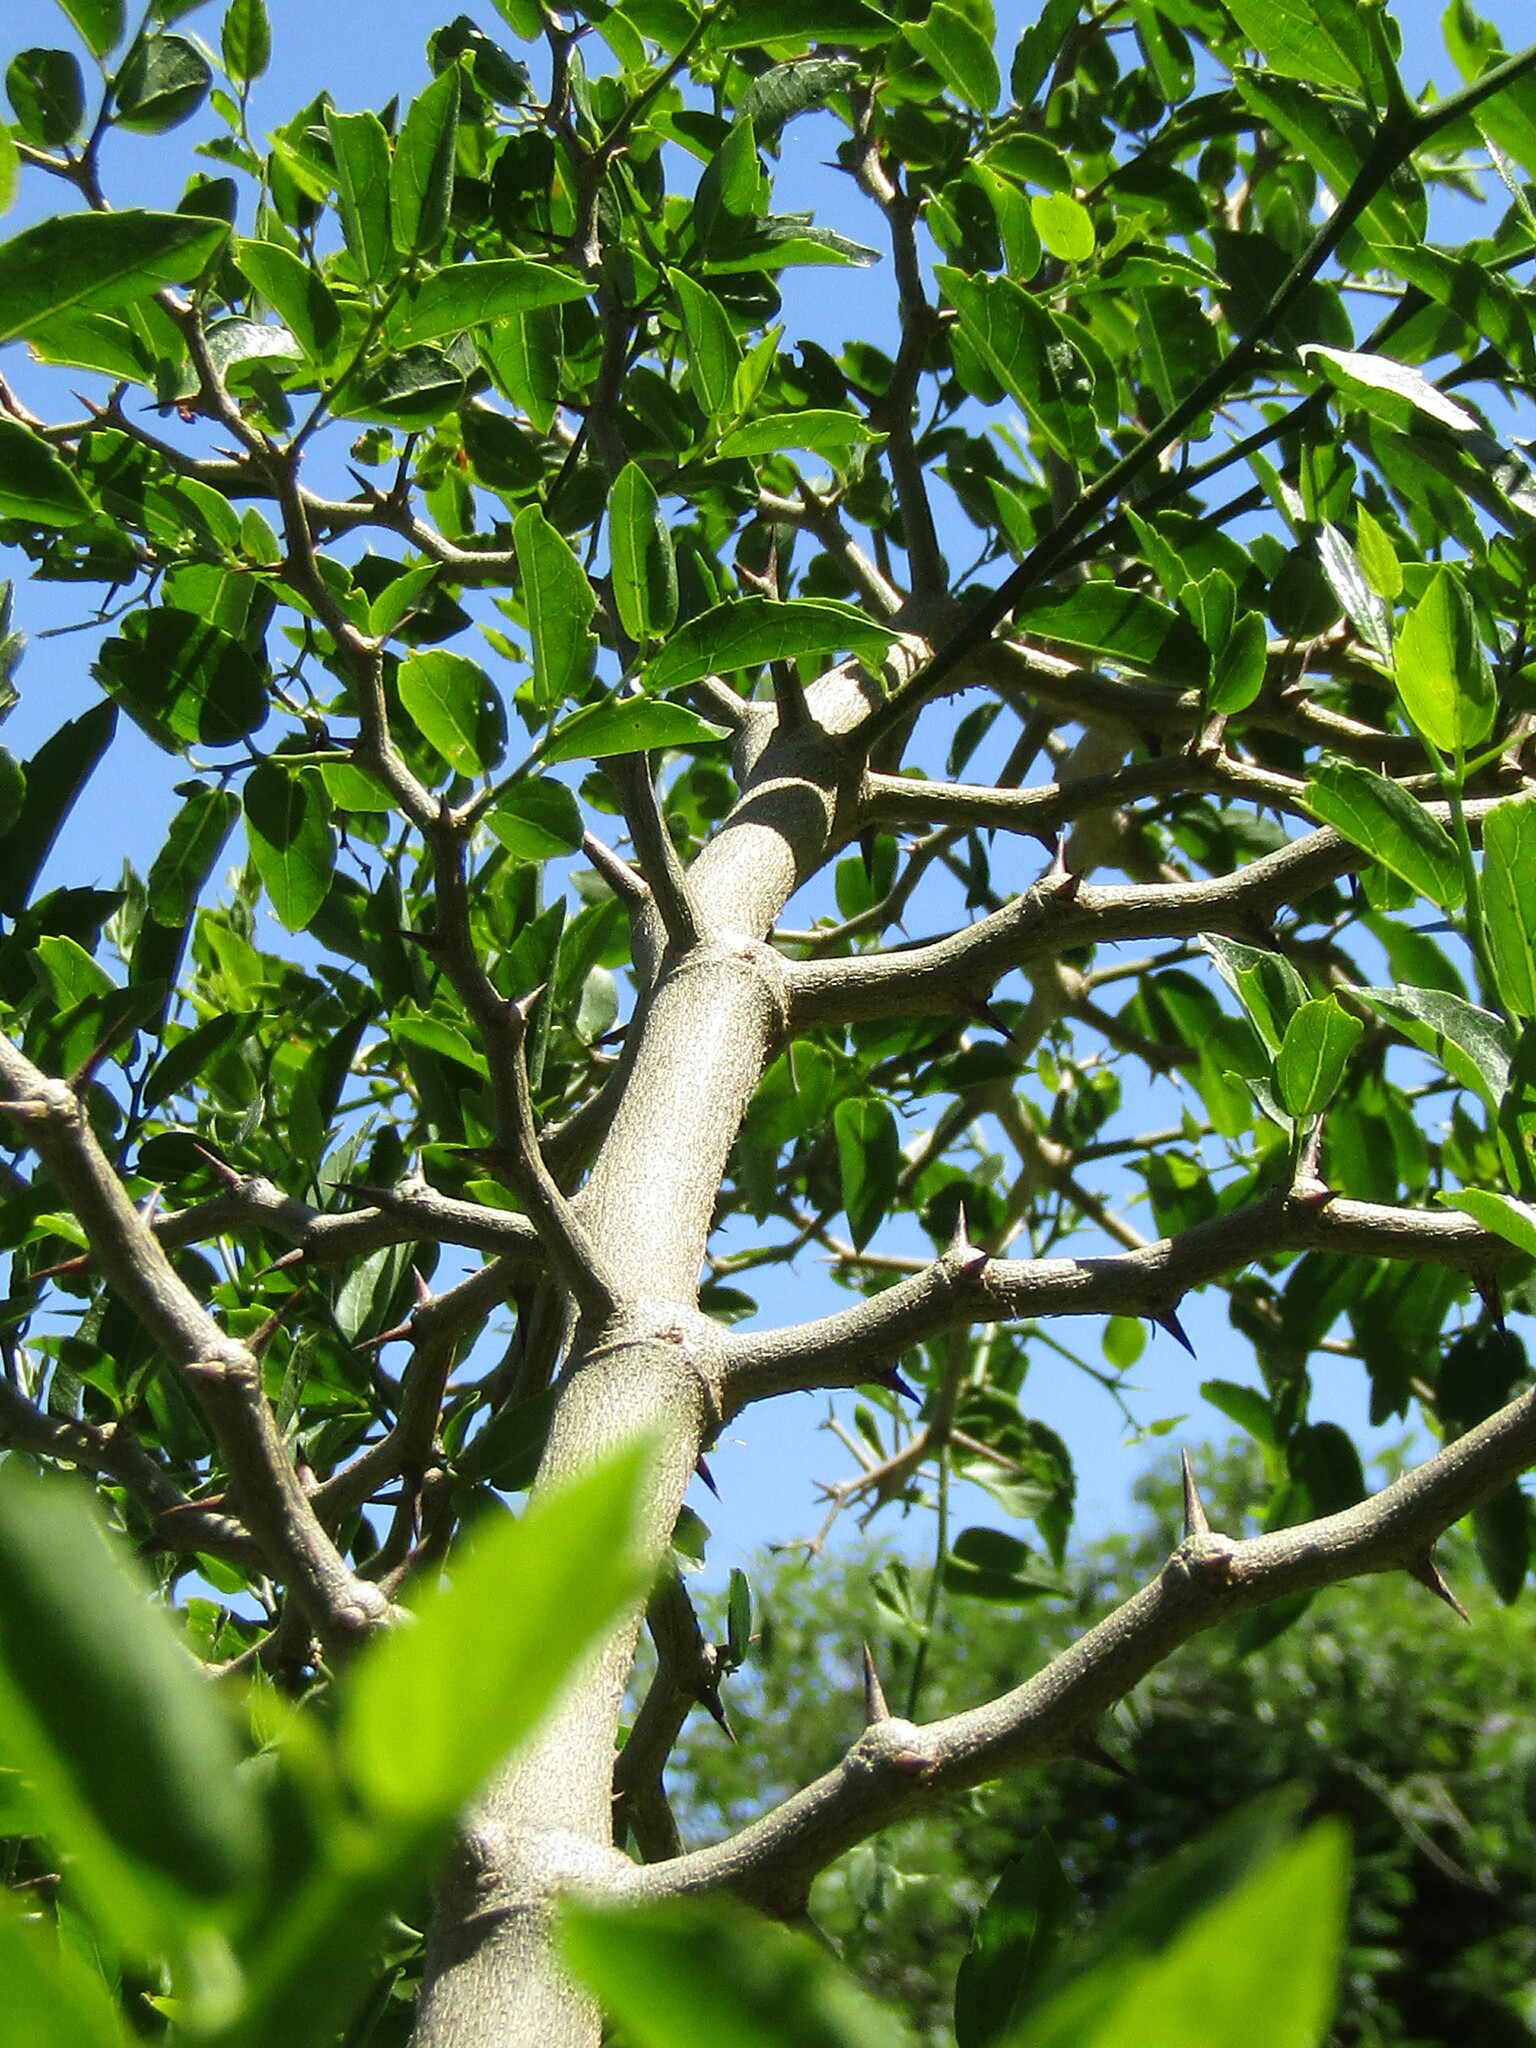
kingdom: Plantae
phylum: Tracheophyta
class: Magnoliopsida
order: Rosales
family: Cannabaceae
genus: Celtis
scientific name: Celtis tala
